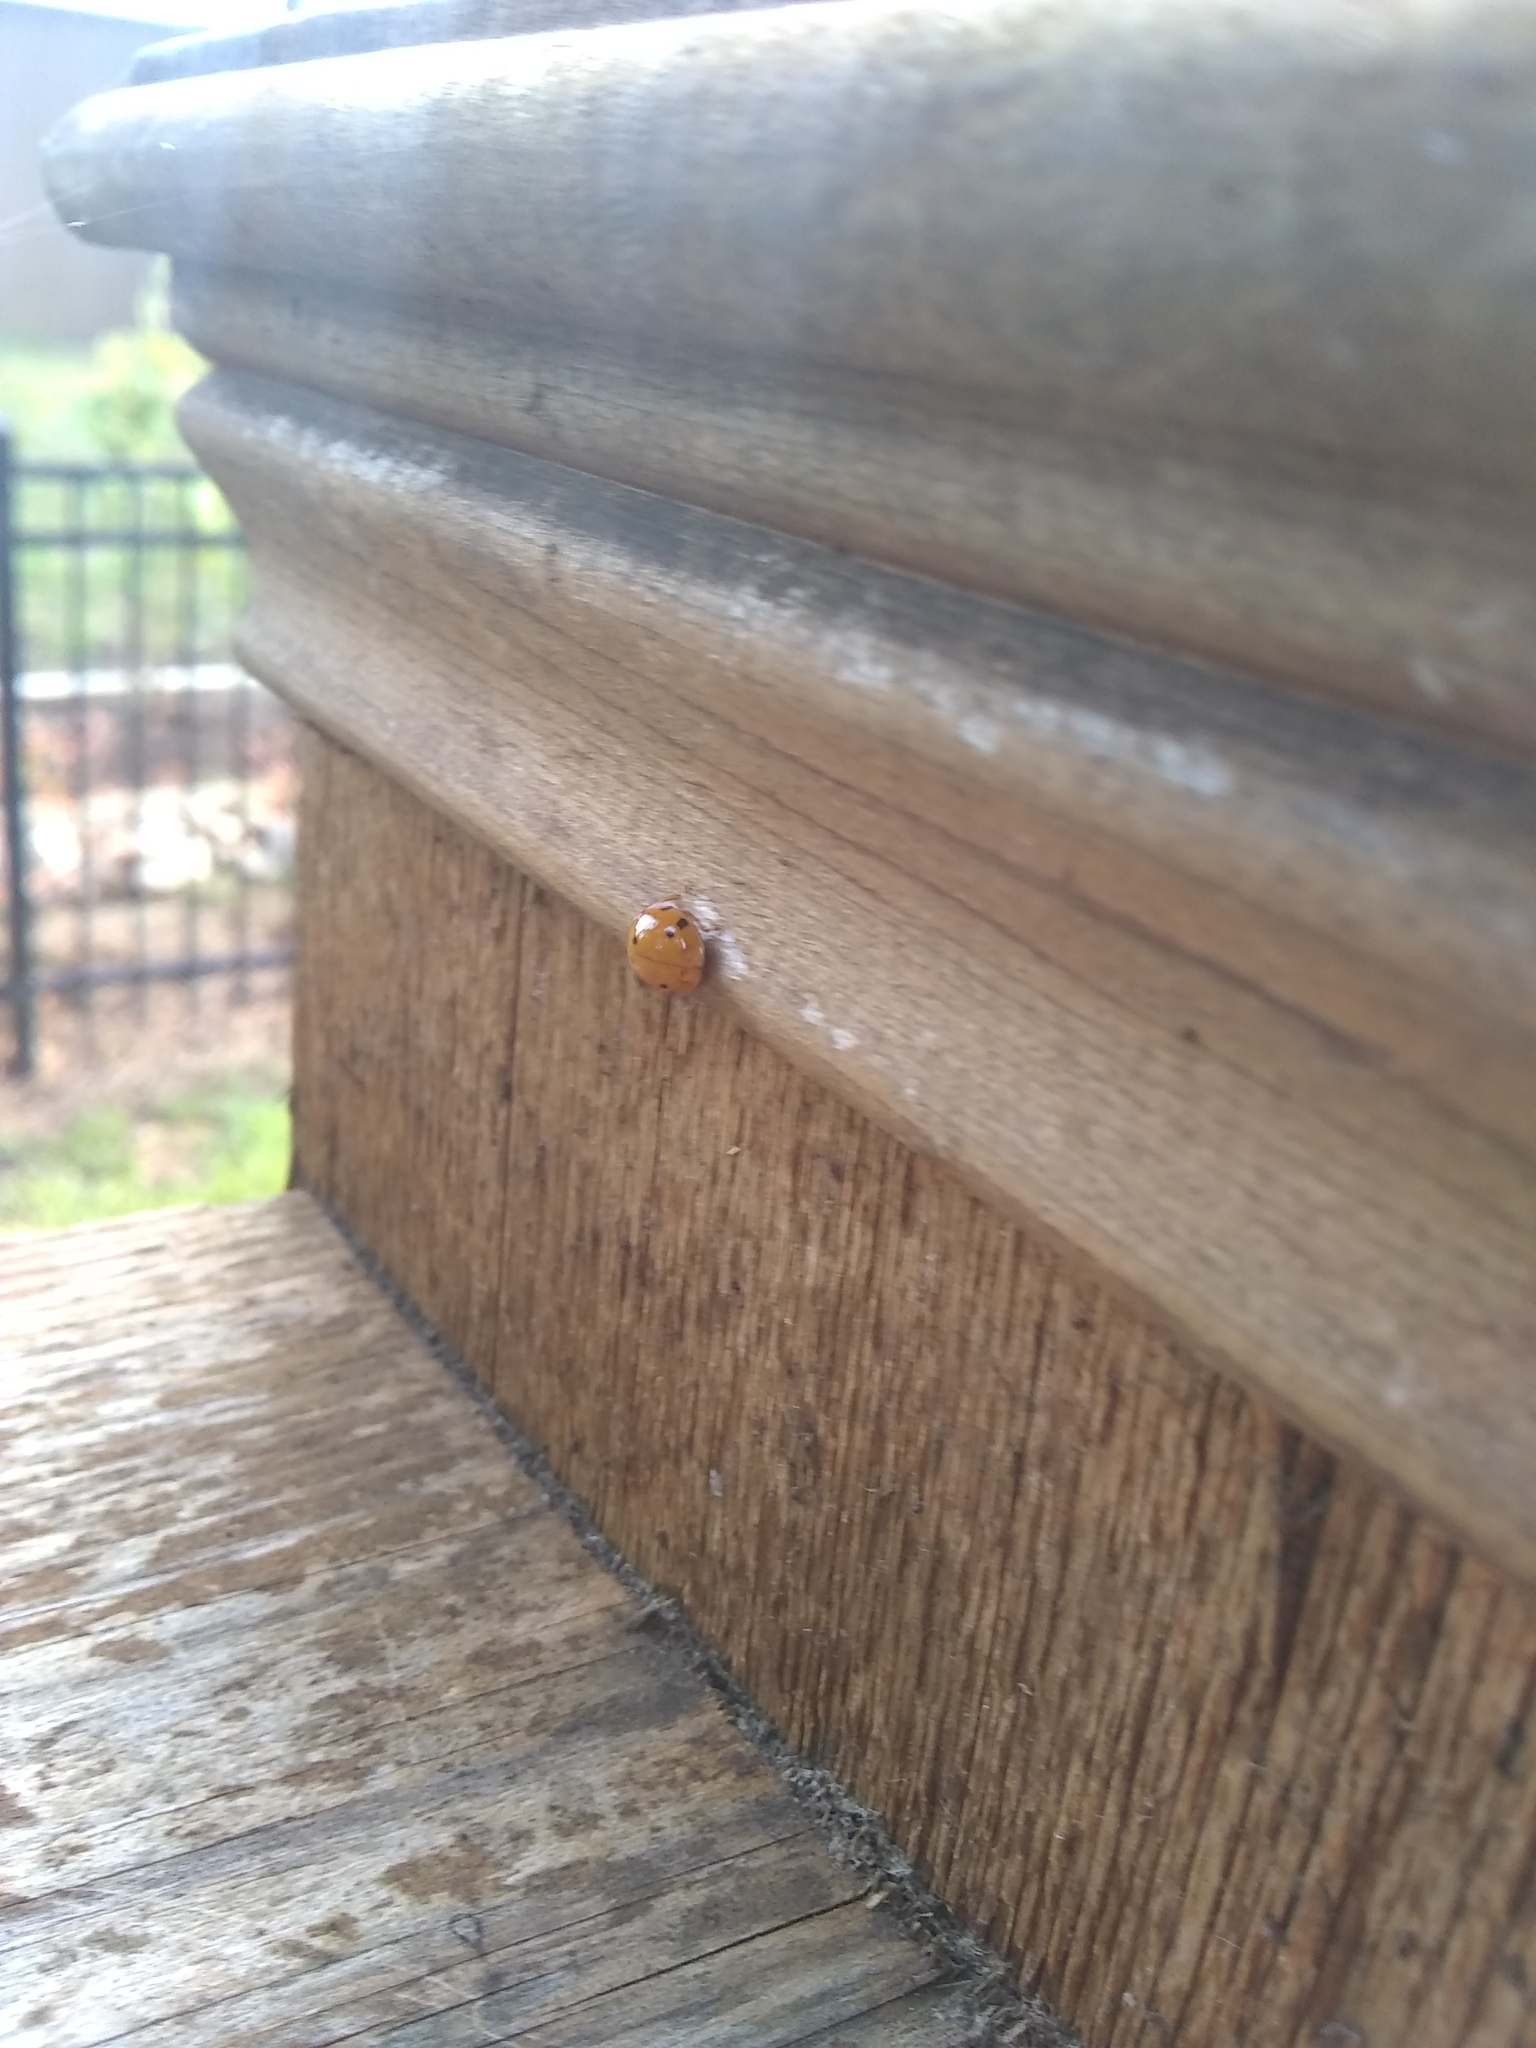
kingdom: Animalia
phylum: Arthropoda
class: Insecta
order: Coleoptera
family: Coccinellidae
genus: Harmonia
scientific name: Harmonia axyridis
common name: Harlequin ladybird
